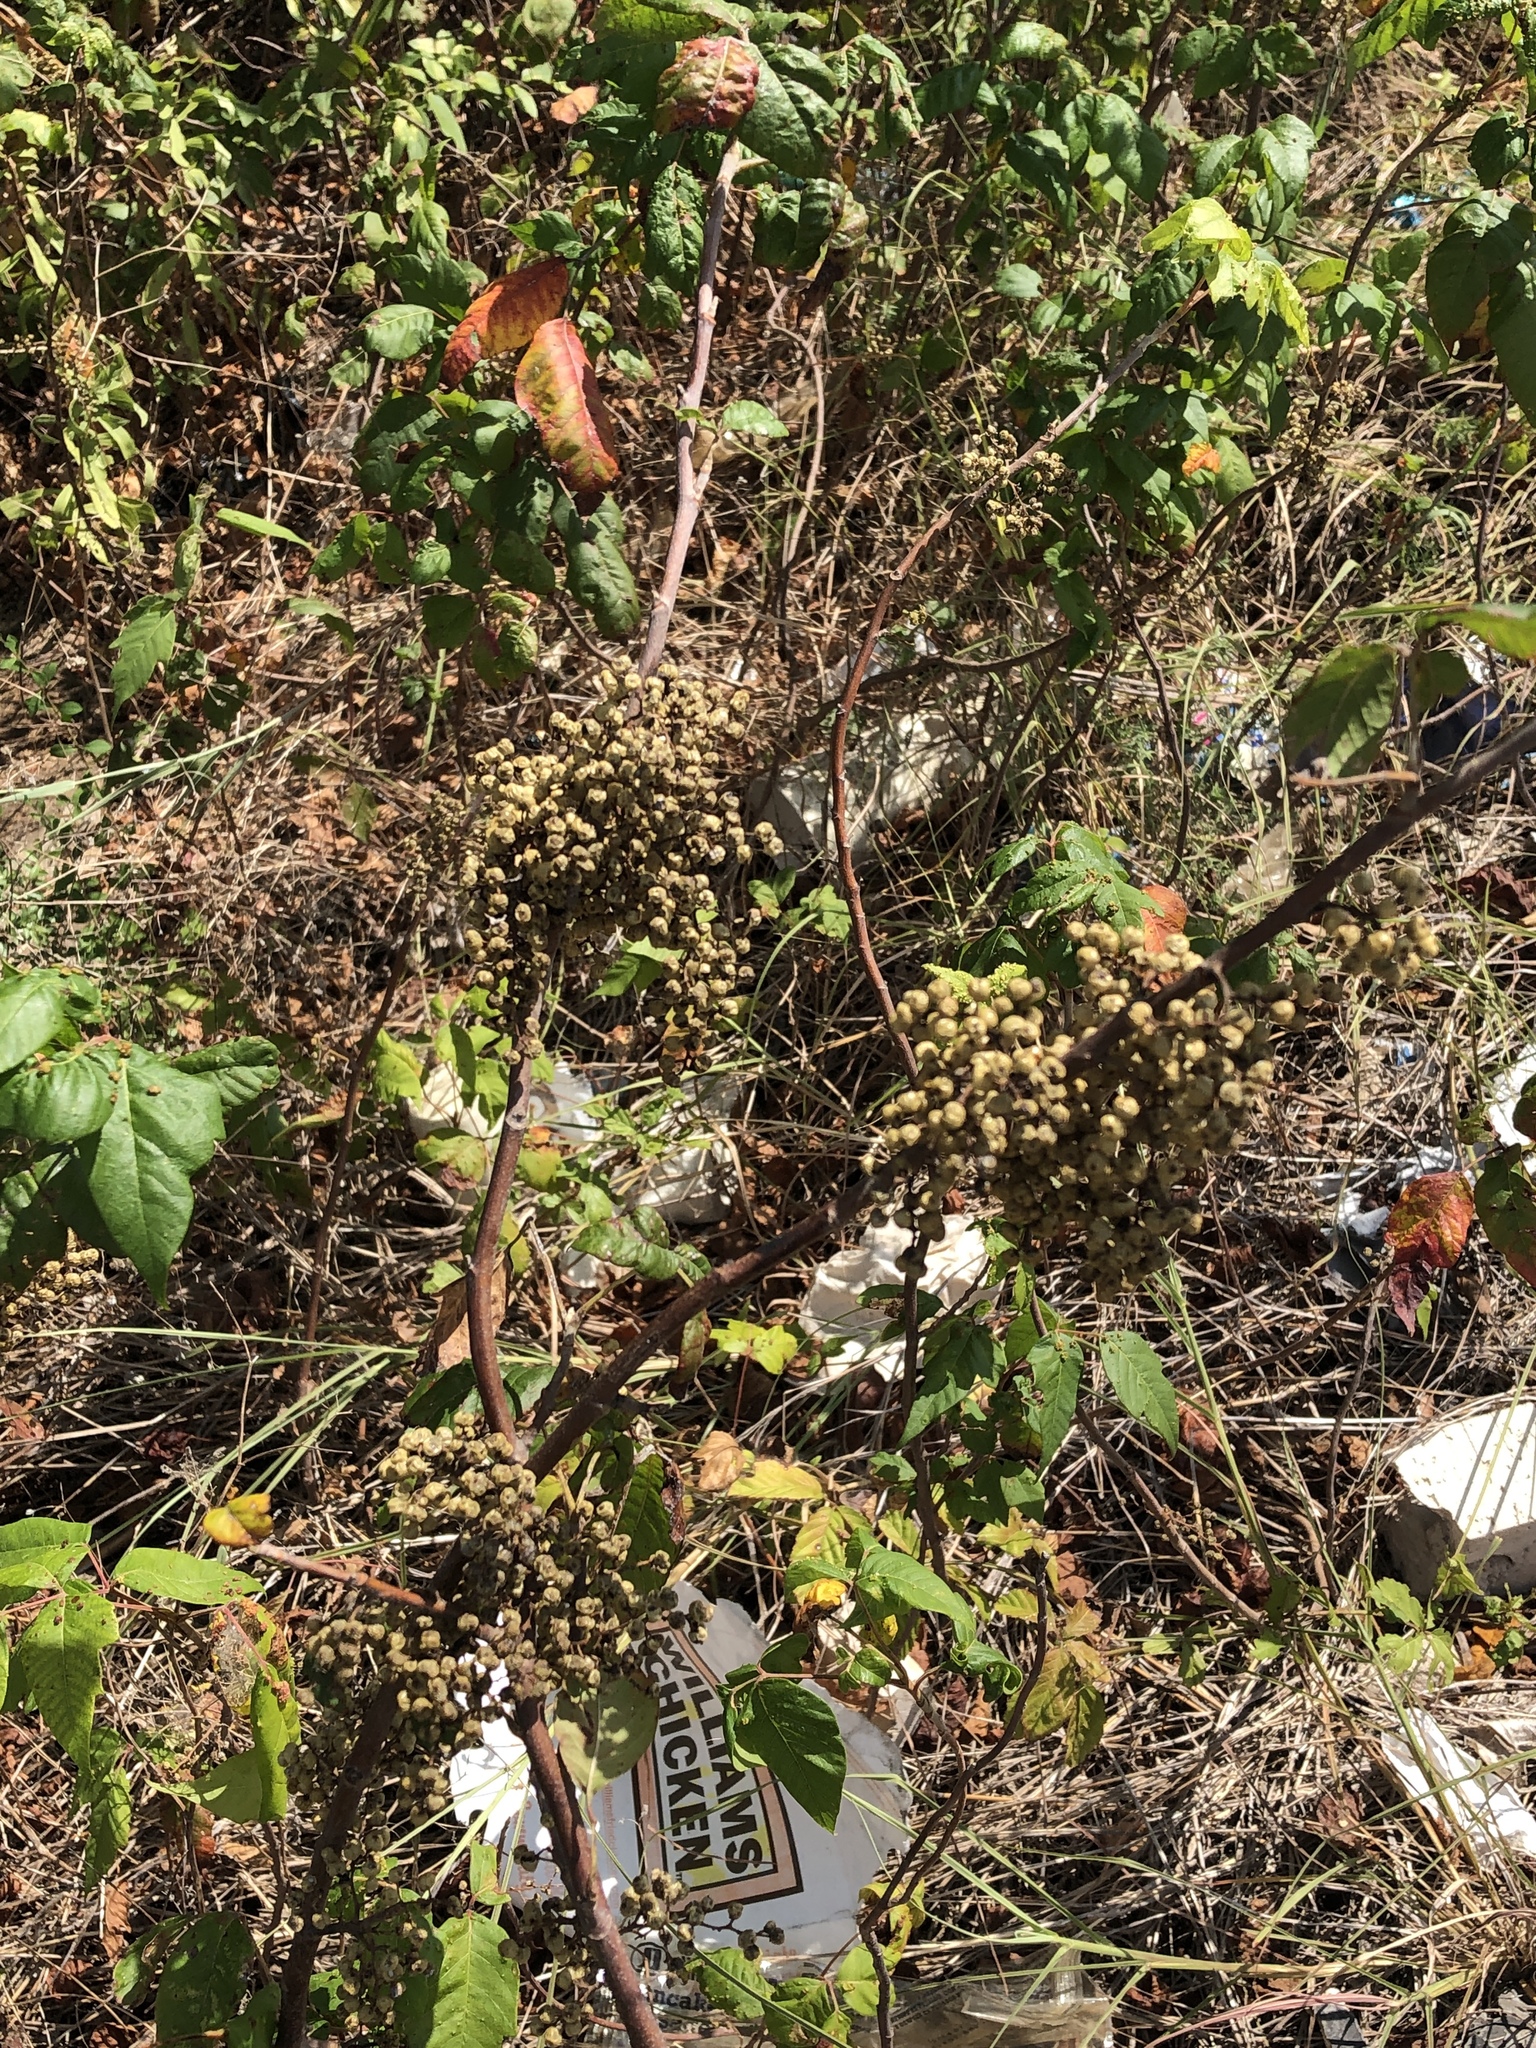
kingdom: Plantae
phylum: Tracheophyta
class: Magnoliopsida
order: Sapindales
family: Anacardiaceae
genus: Toxicodendron
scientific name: Toxicodendron radicans
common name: Poison ivy
